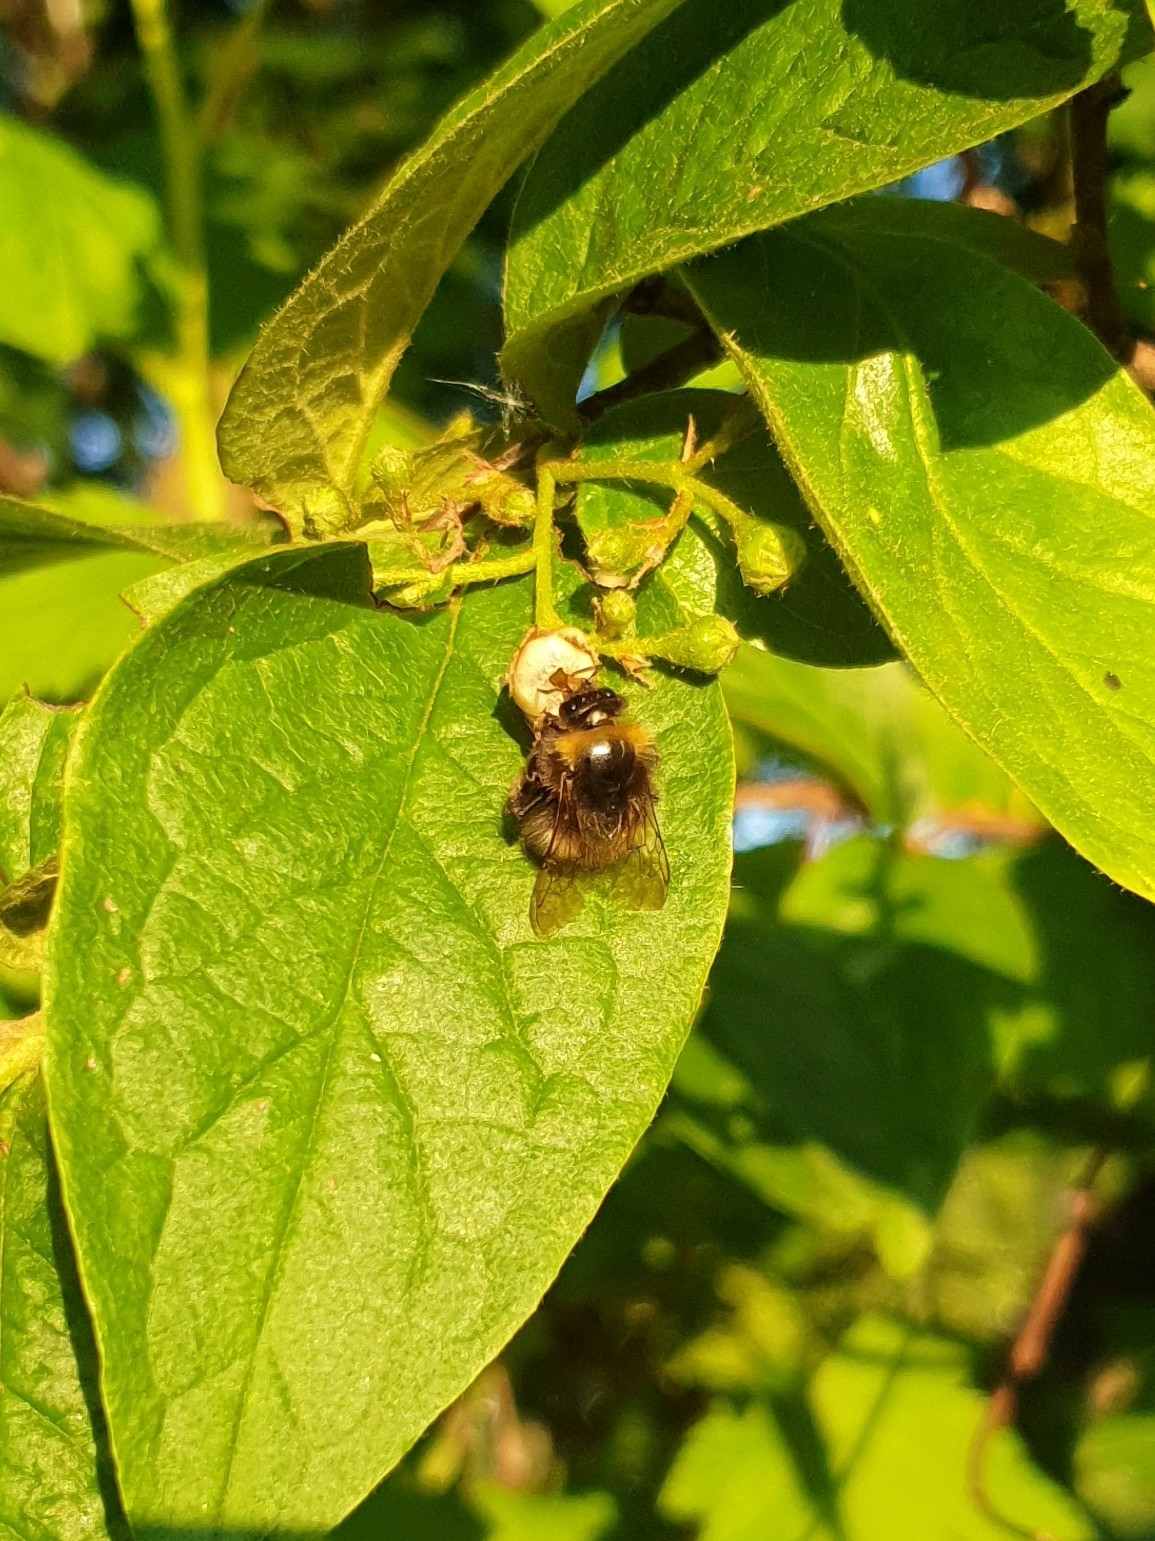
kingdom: Animalia
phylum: Arthropoda
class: Insecta
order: Hymenoptera
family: Apidae
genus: Bombus
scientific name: Bombus pratorum
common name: Early humble-bee
